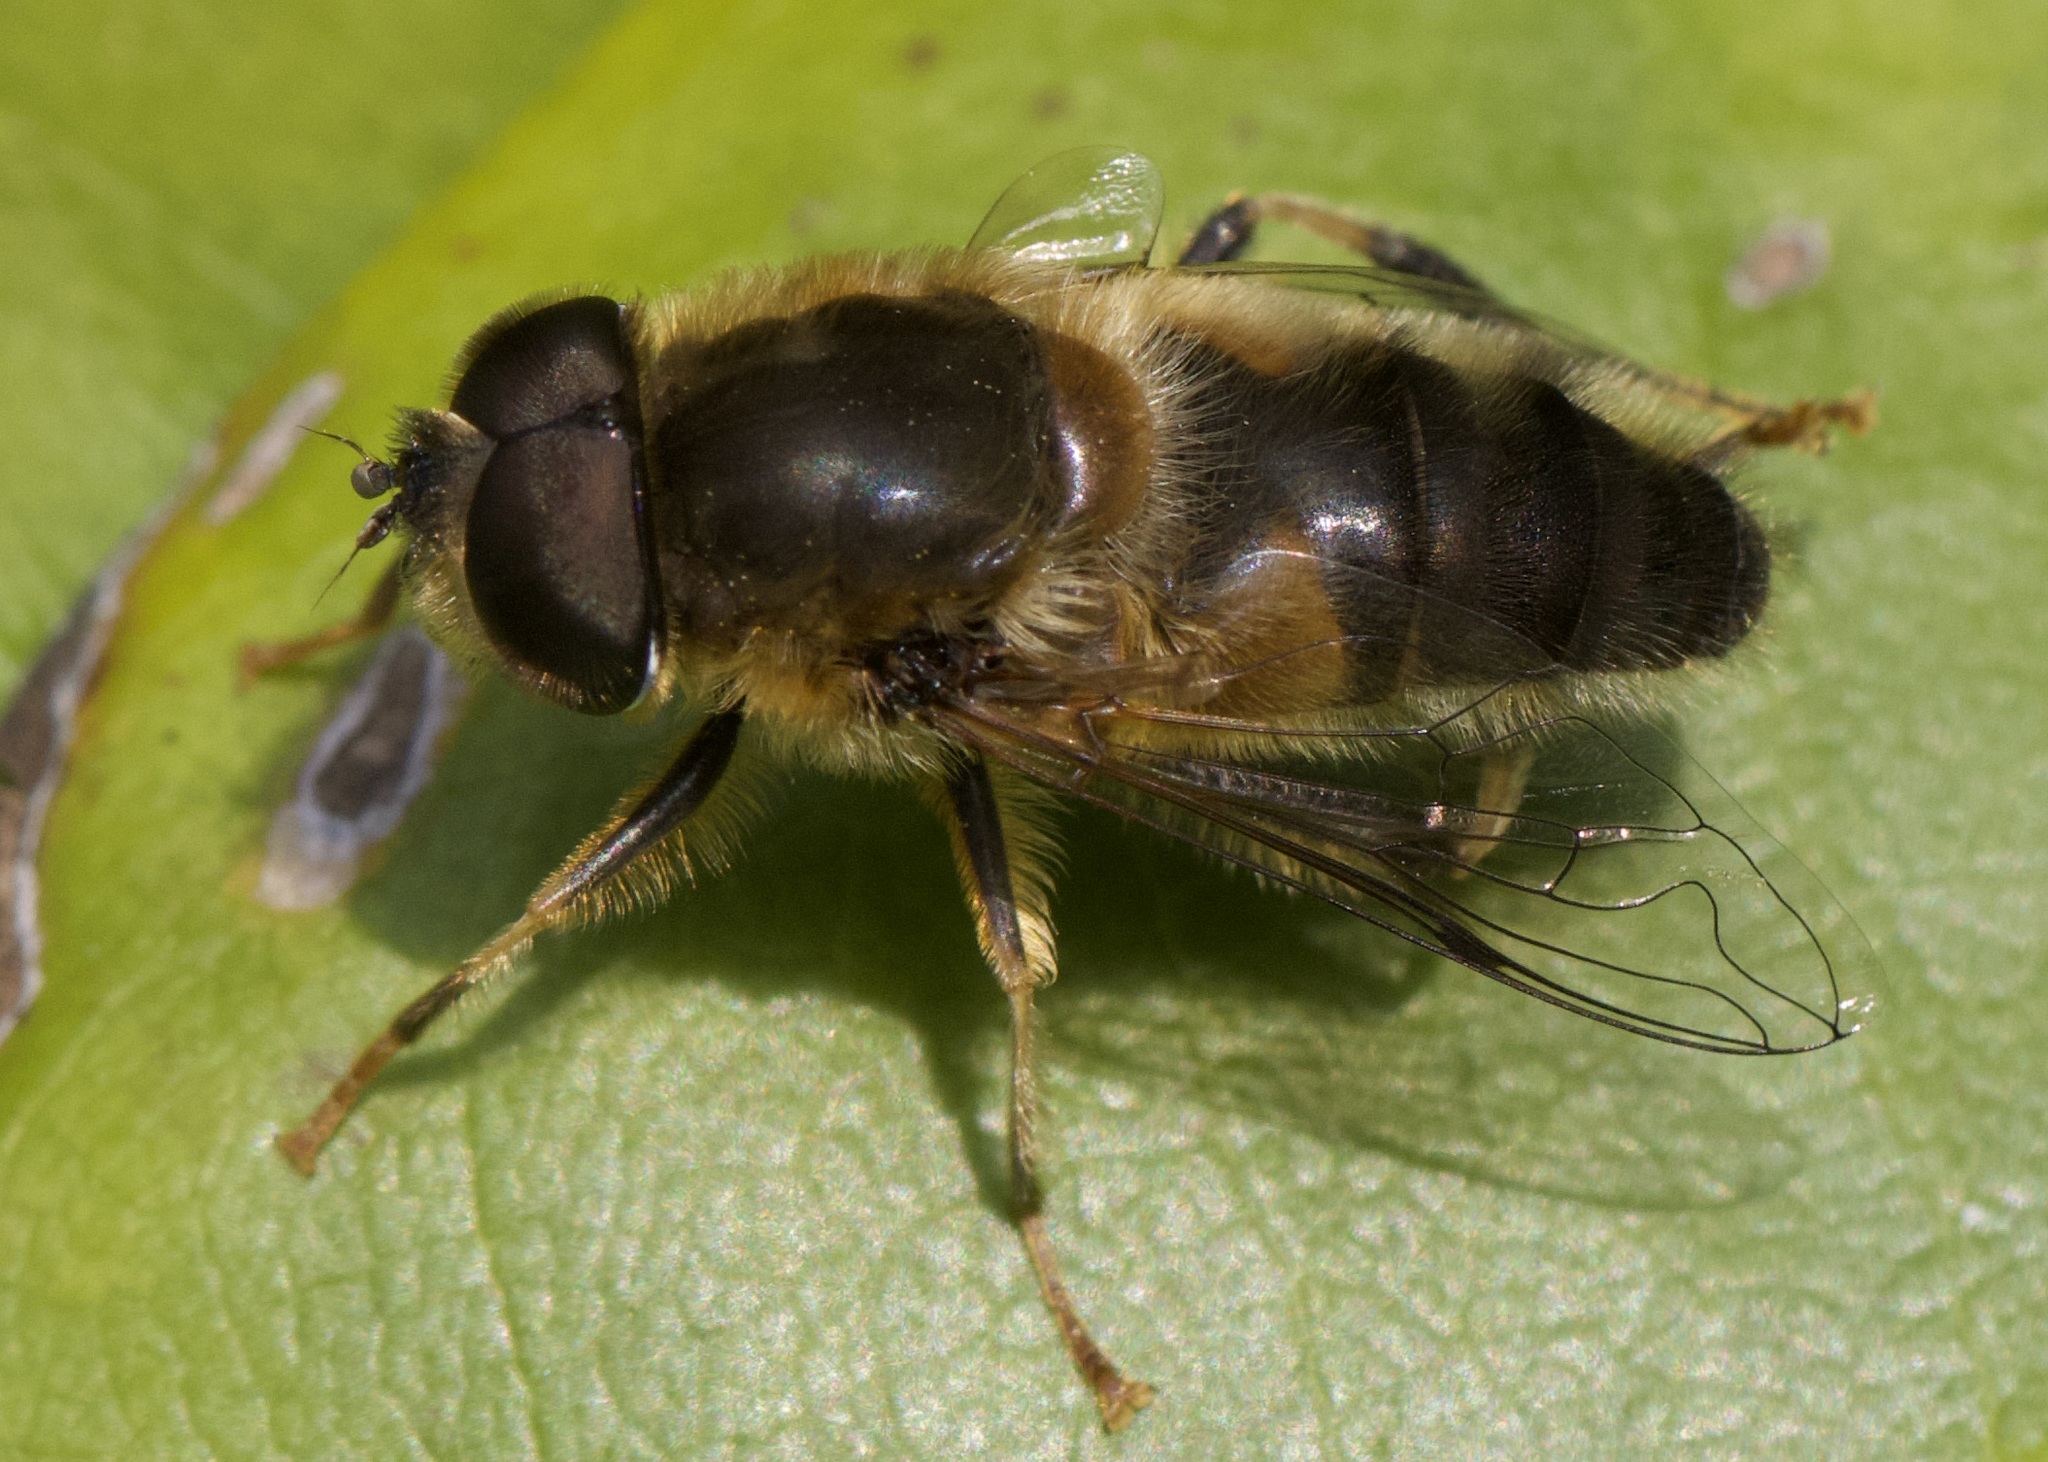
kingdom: Animalia
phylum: Arthropoda
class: Insecta
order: Diptera
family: Syrphidae
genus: Eristalis
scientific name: Eristalis pertinax
